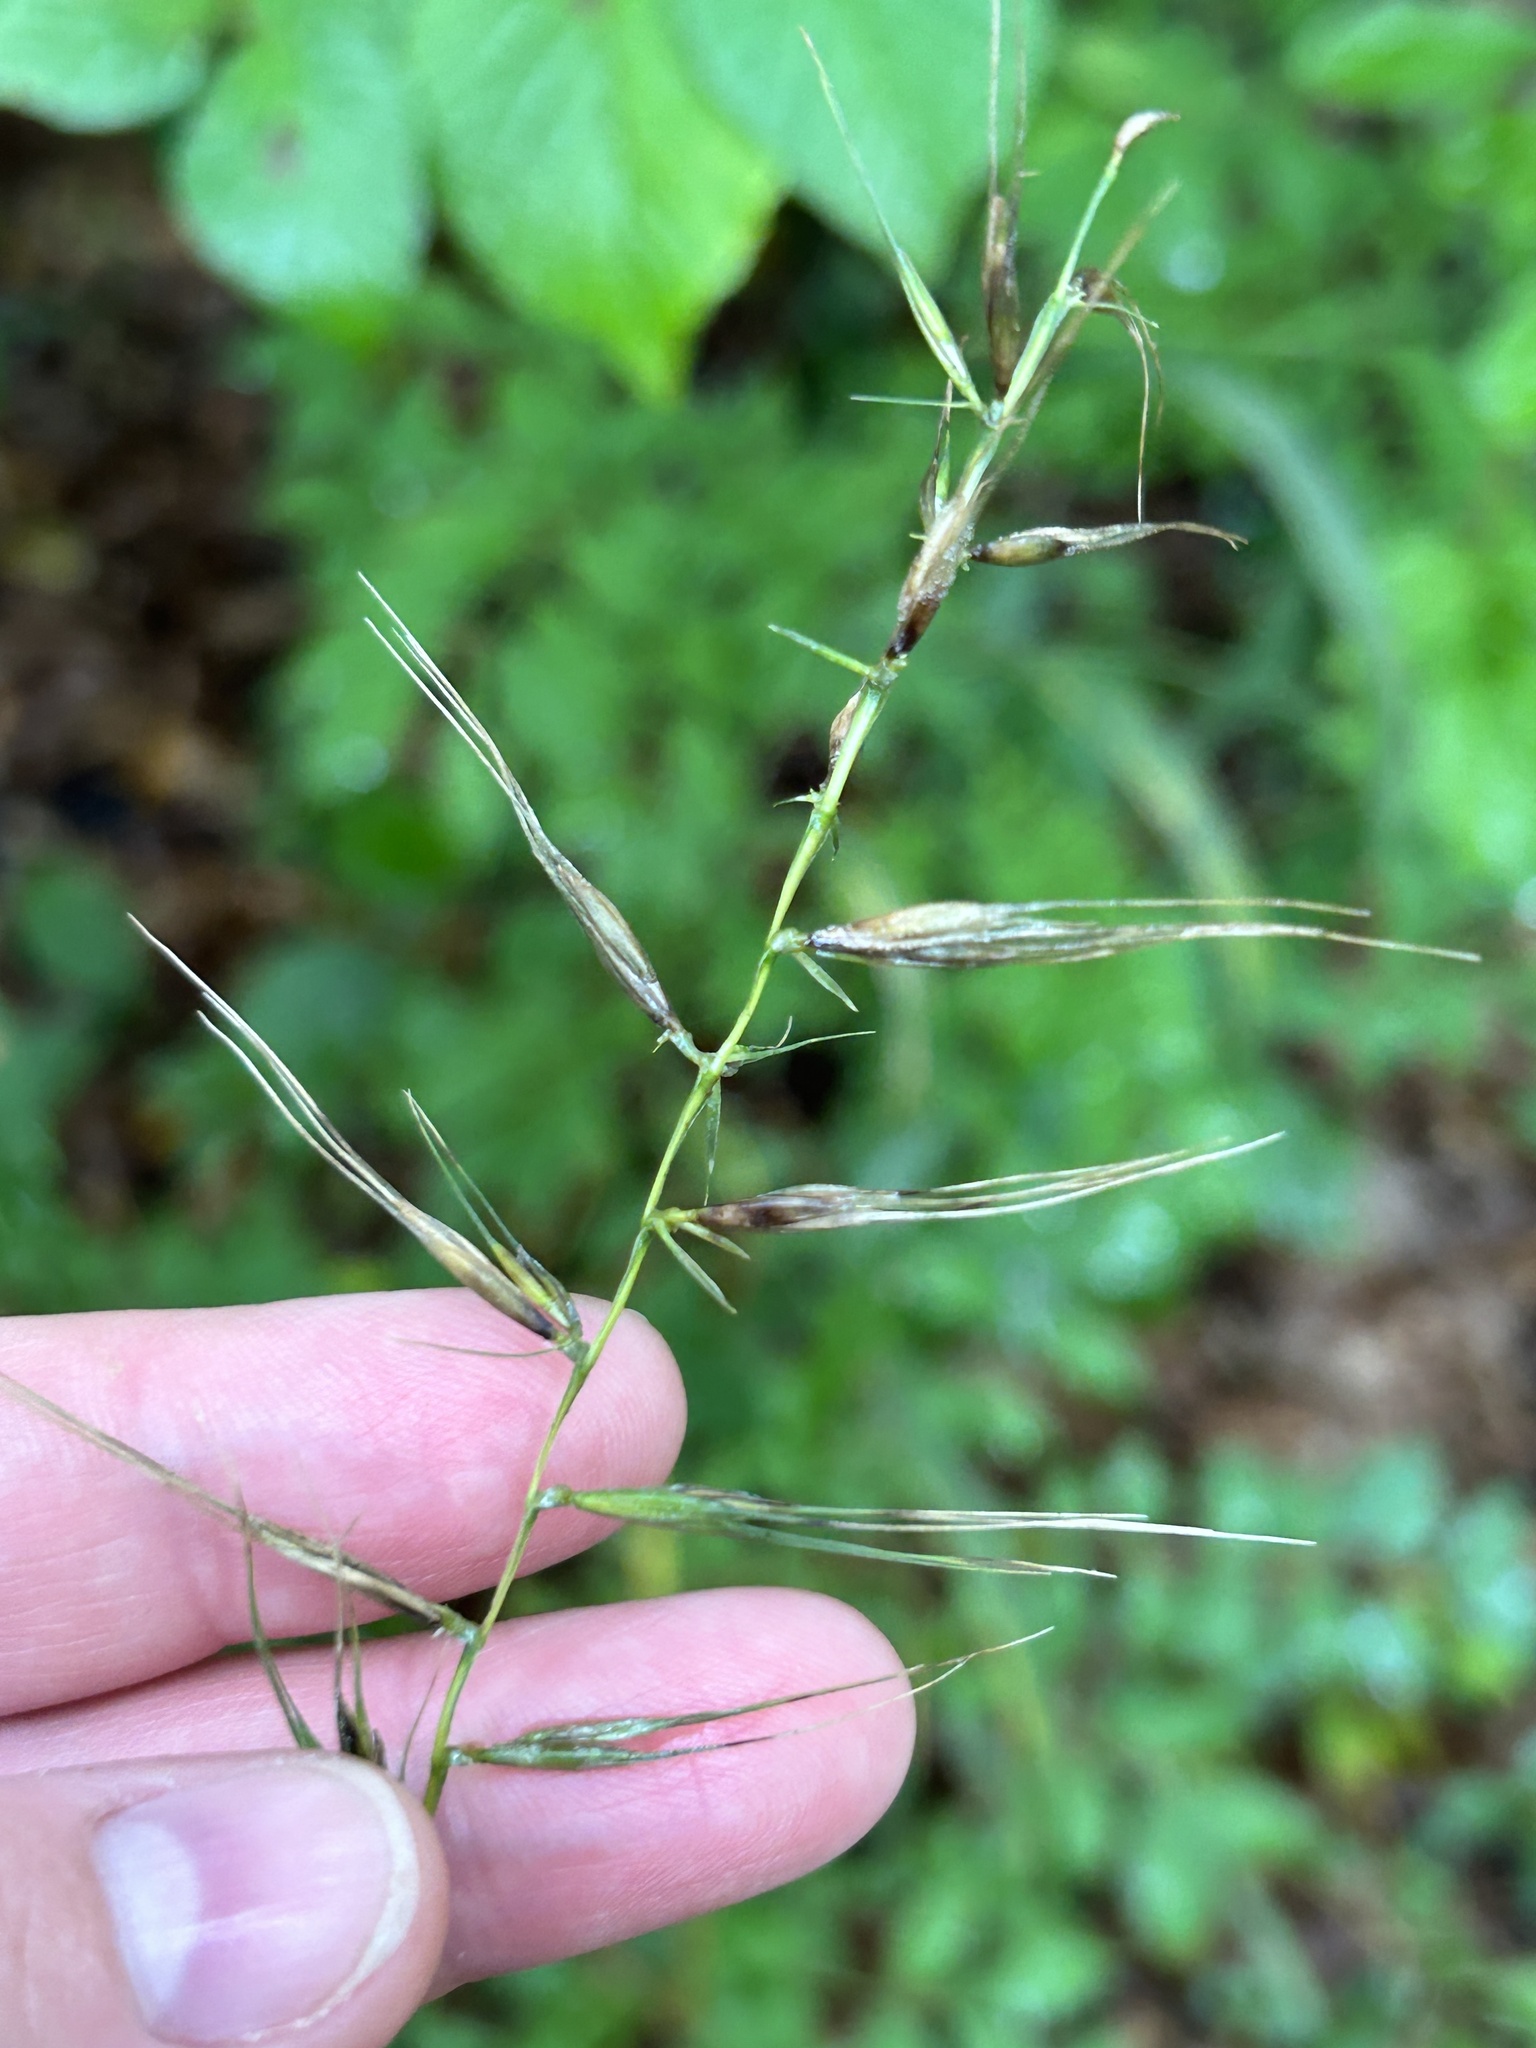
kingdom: Plantae
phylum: Tracheophyta
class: Liliopsida
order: Poales
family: Poaceae
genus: Elymus
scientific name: Elymus hystrix
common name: Bottlebrush grass
